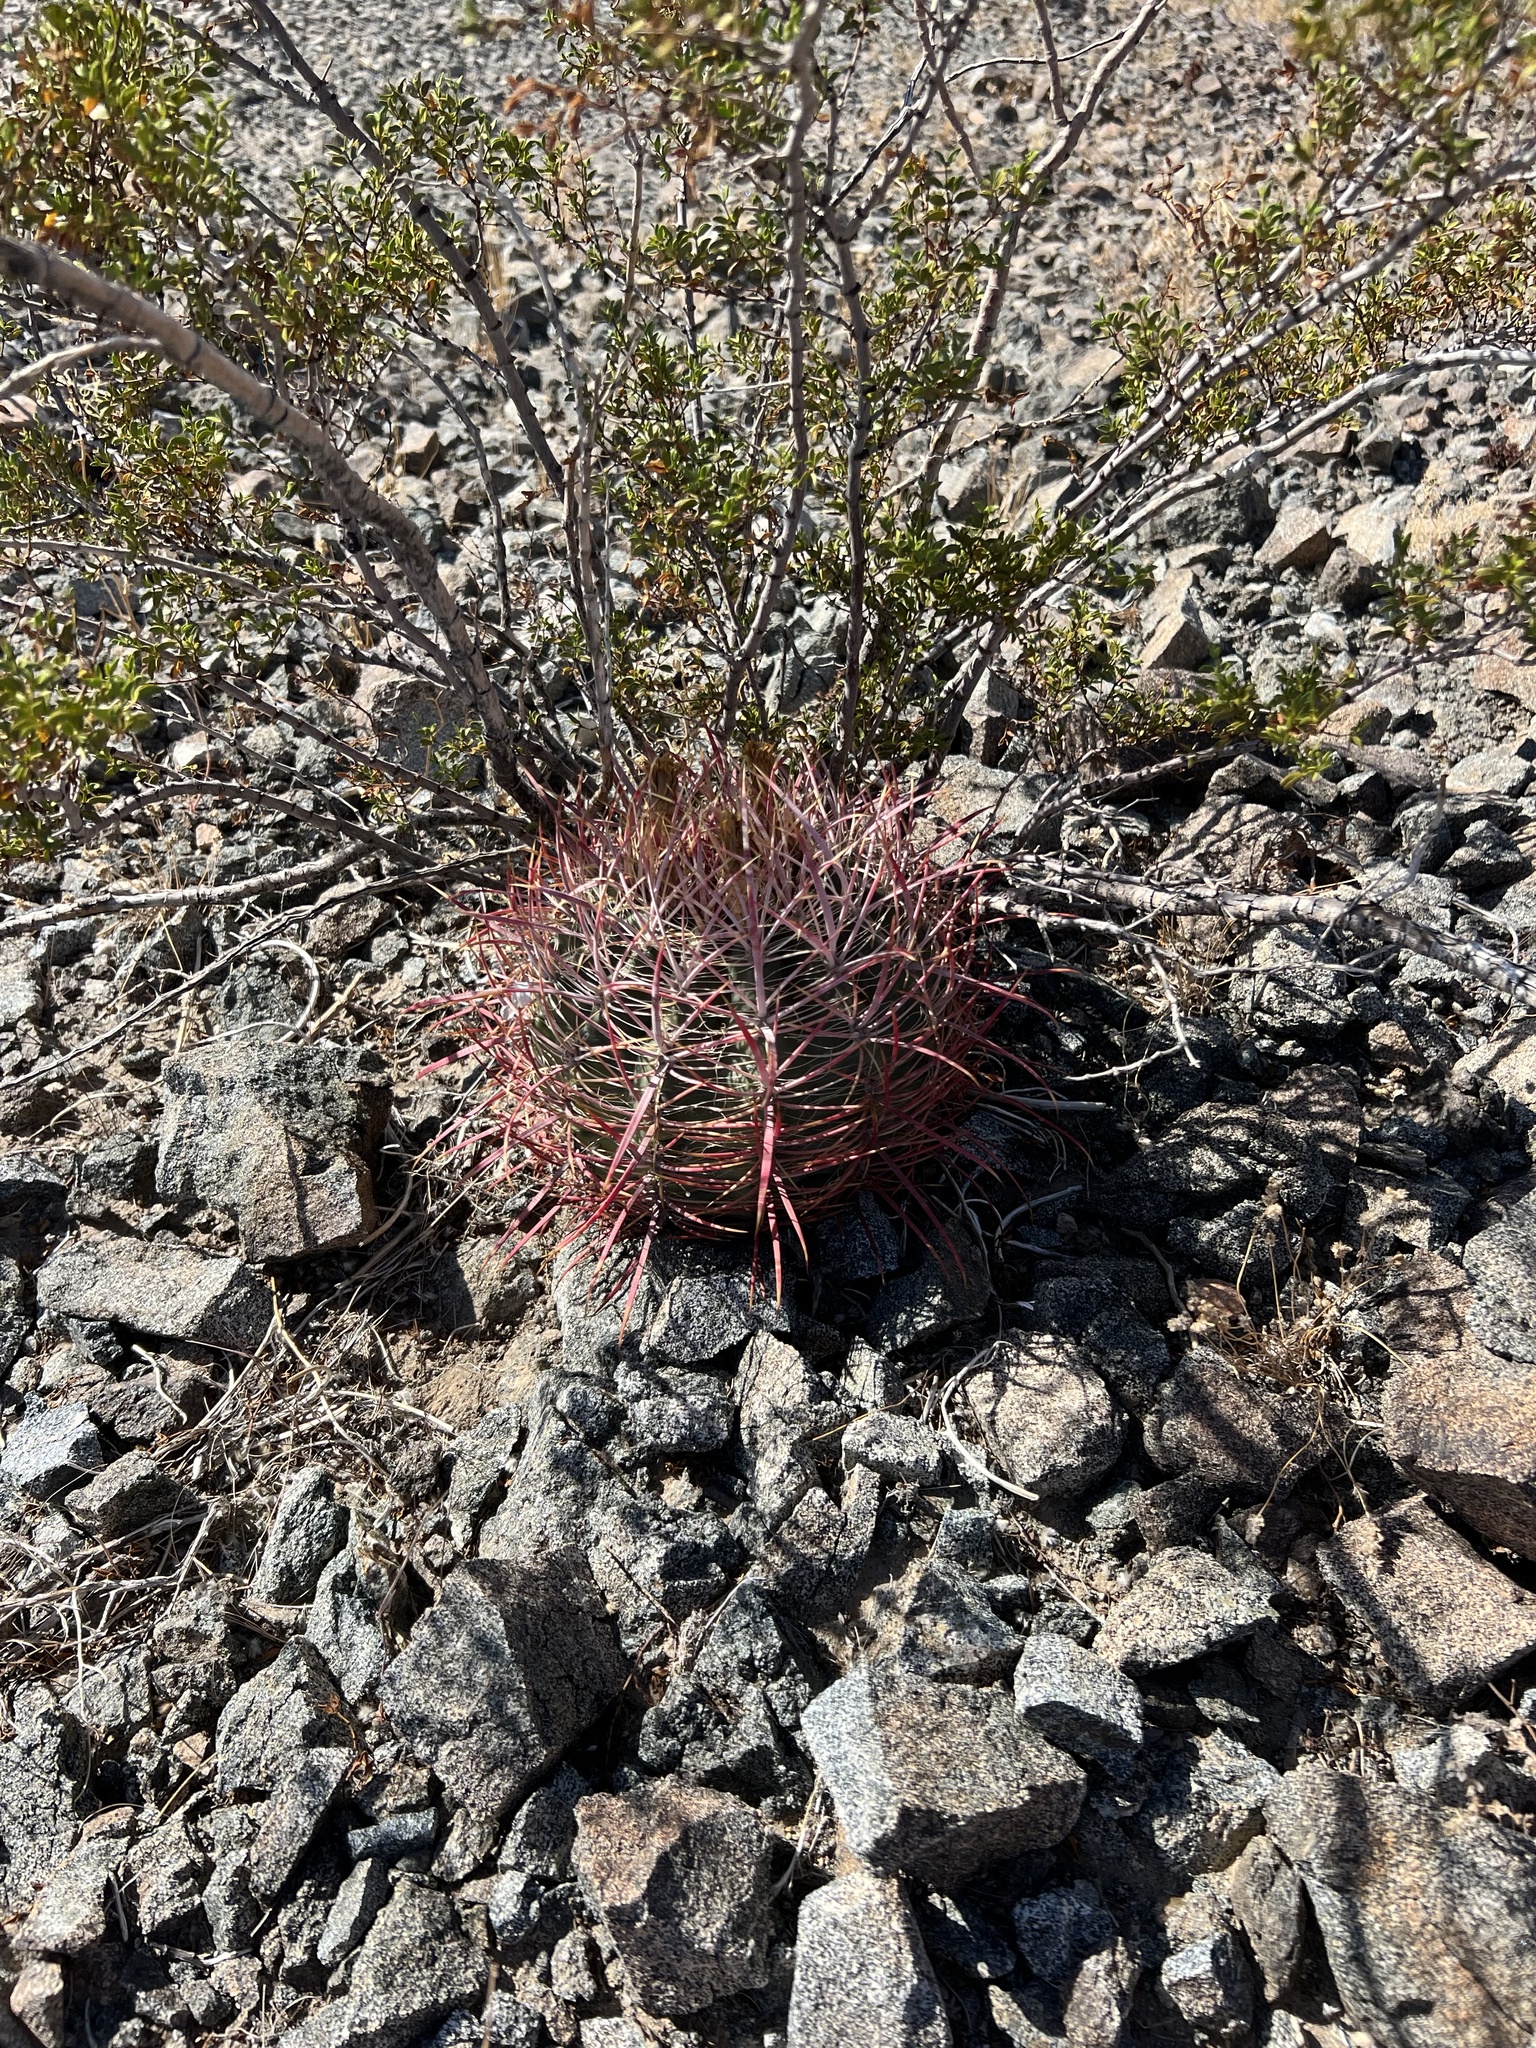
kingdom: Plantae
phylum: Tracheophyta
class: Magnoliopsida
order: Caryophyllales
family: Cactaceae
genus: Ferocactus
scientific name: Ferocactus cylindraceus
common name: California barrel cactus
